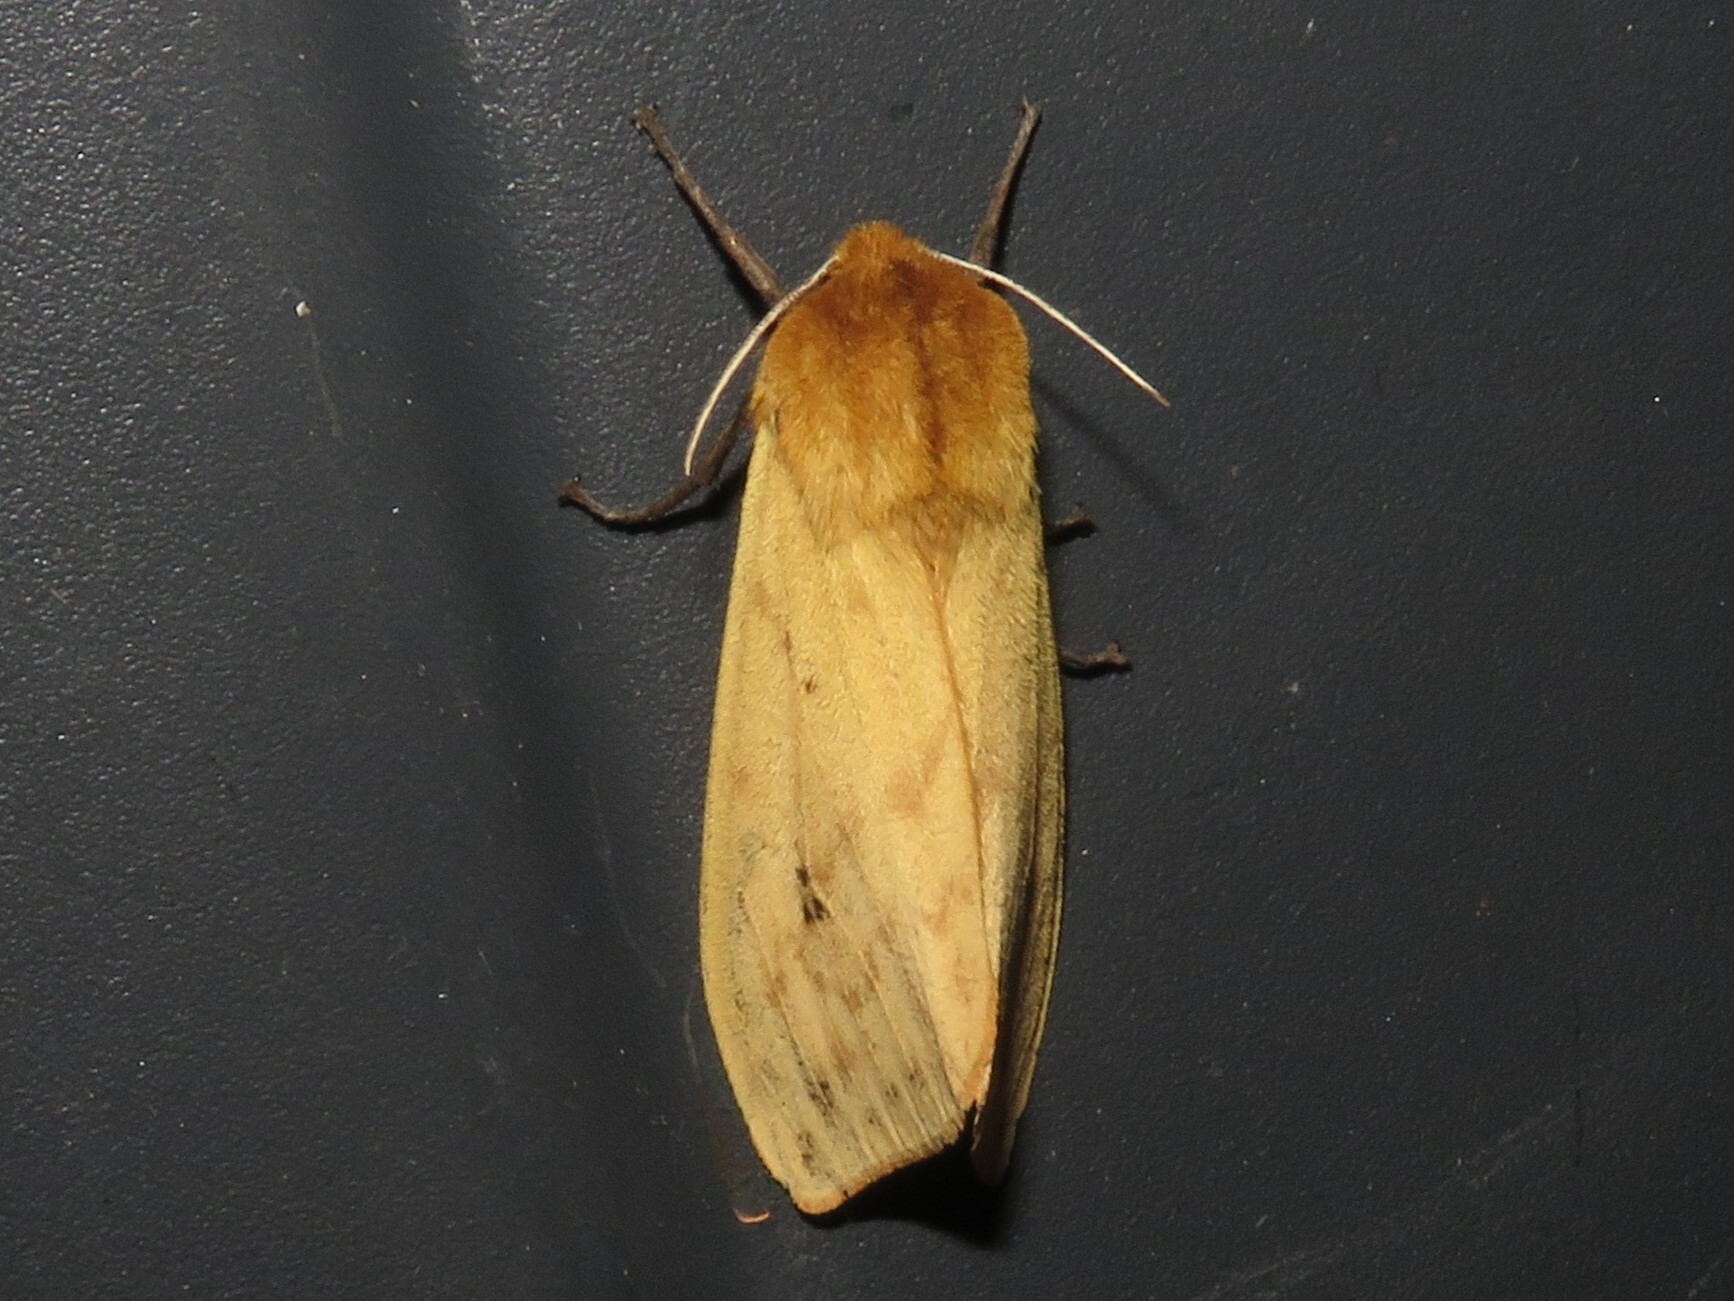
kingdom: Animalia
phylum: Arthropoda
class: Insecta
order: Lepidoptera
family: Erebidae
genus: Pyrrharctia
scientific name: Pyrrharctia isabella
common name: Isabella tiger moth
